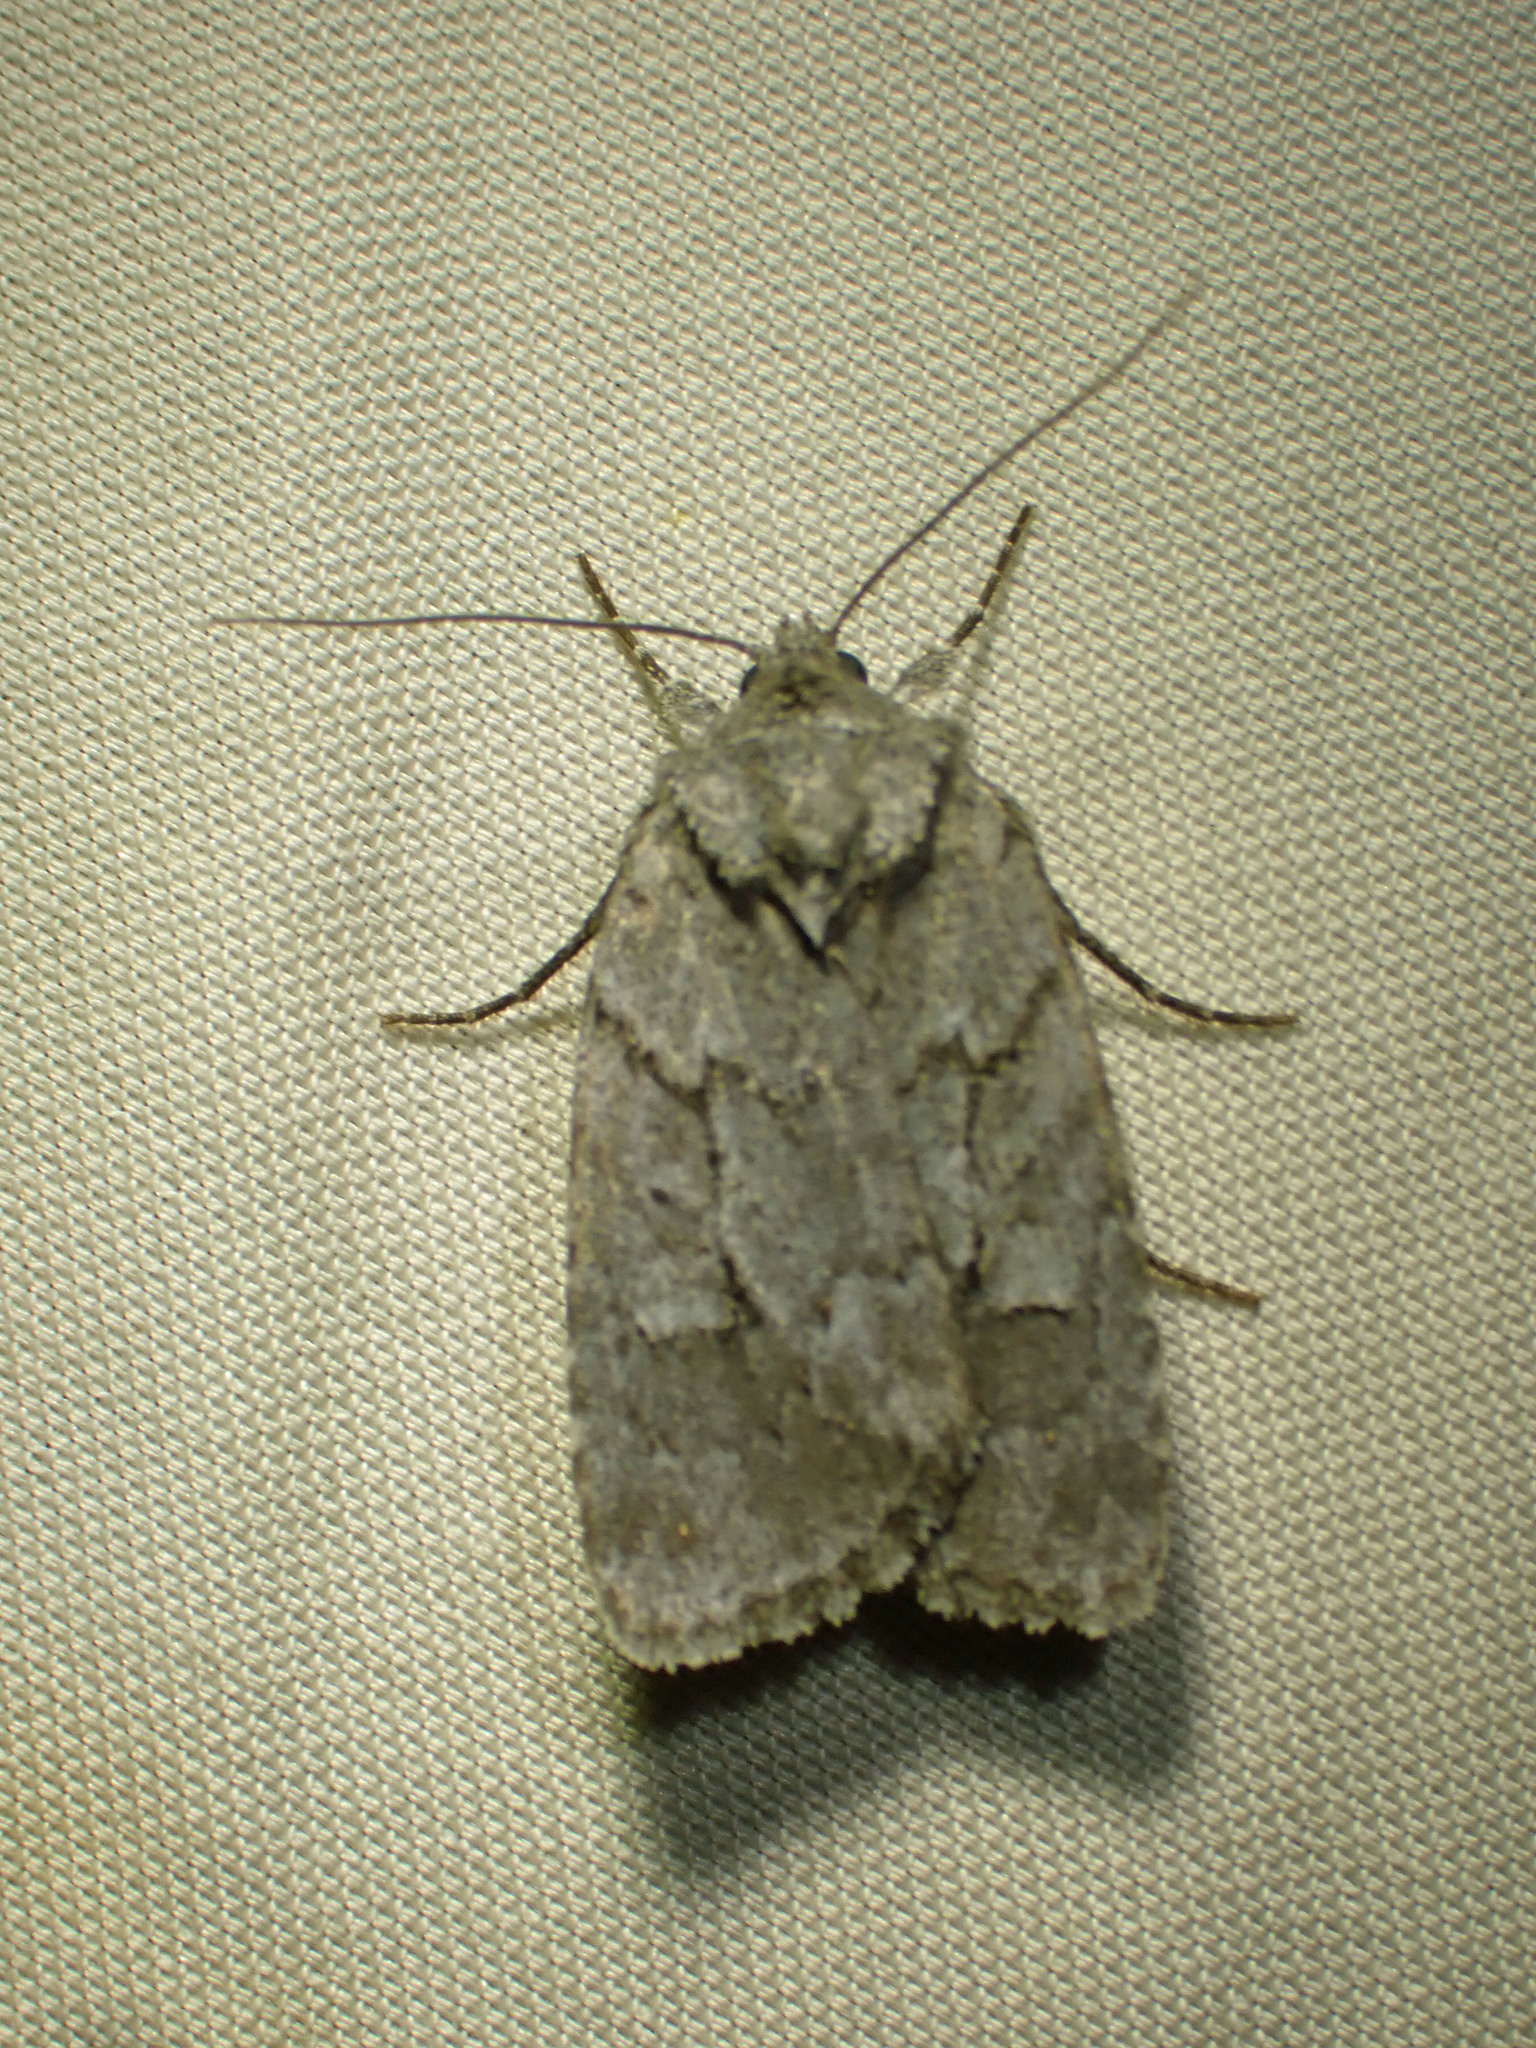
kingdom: Animalia
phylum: Arthropoda
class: Insecta
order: Lepidoptera
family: Noctuidae
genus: Sympistis
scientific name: Sympistis dentata
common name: Blueberry sallow
